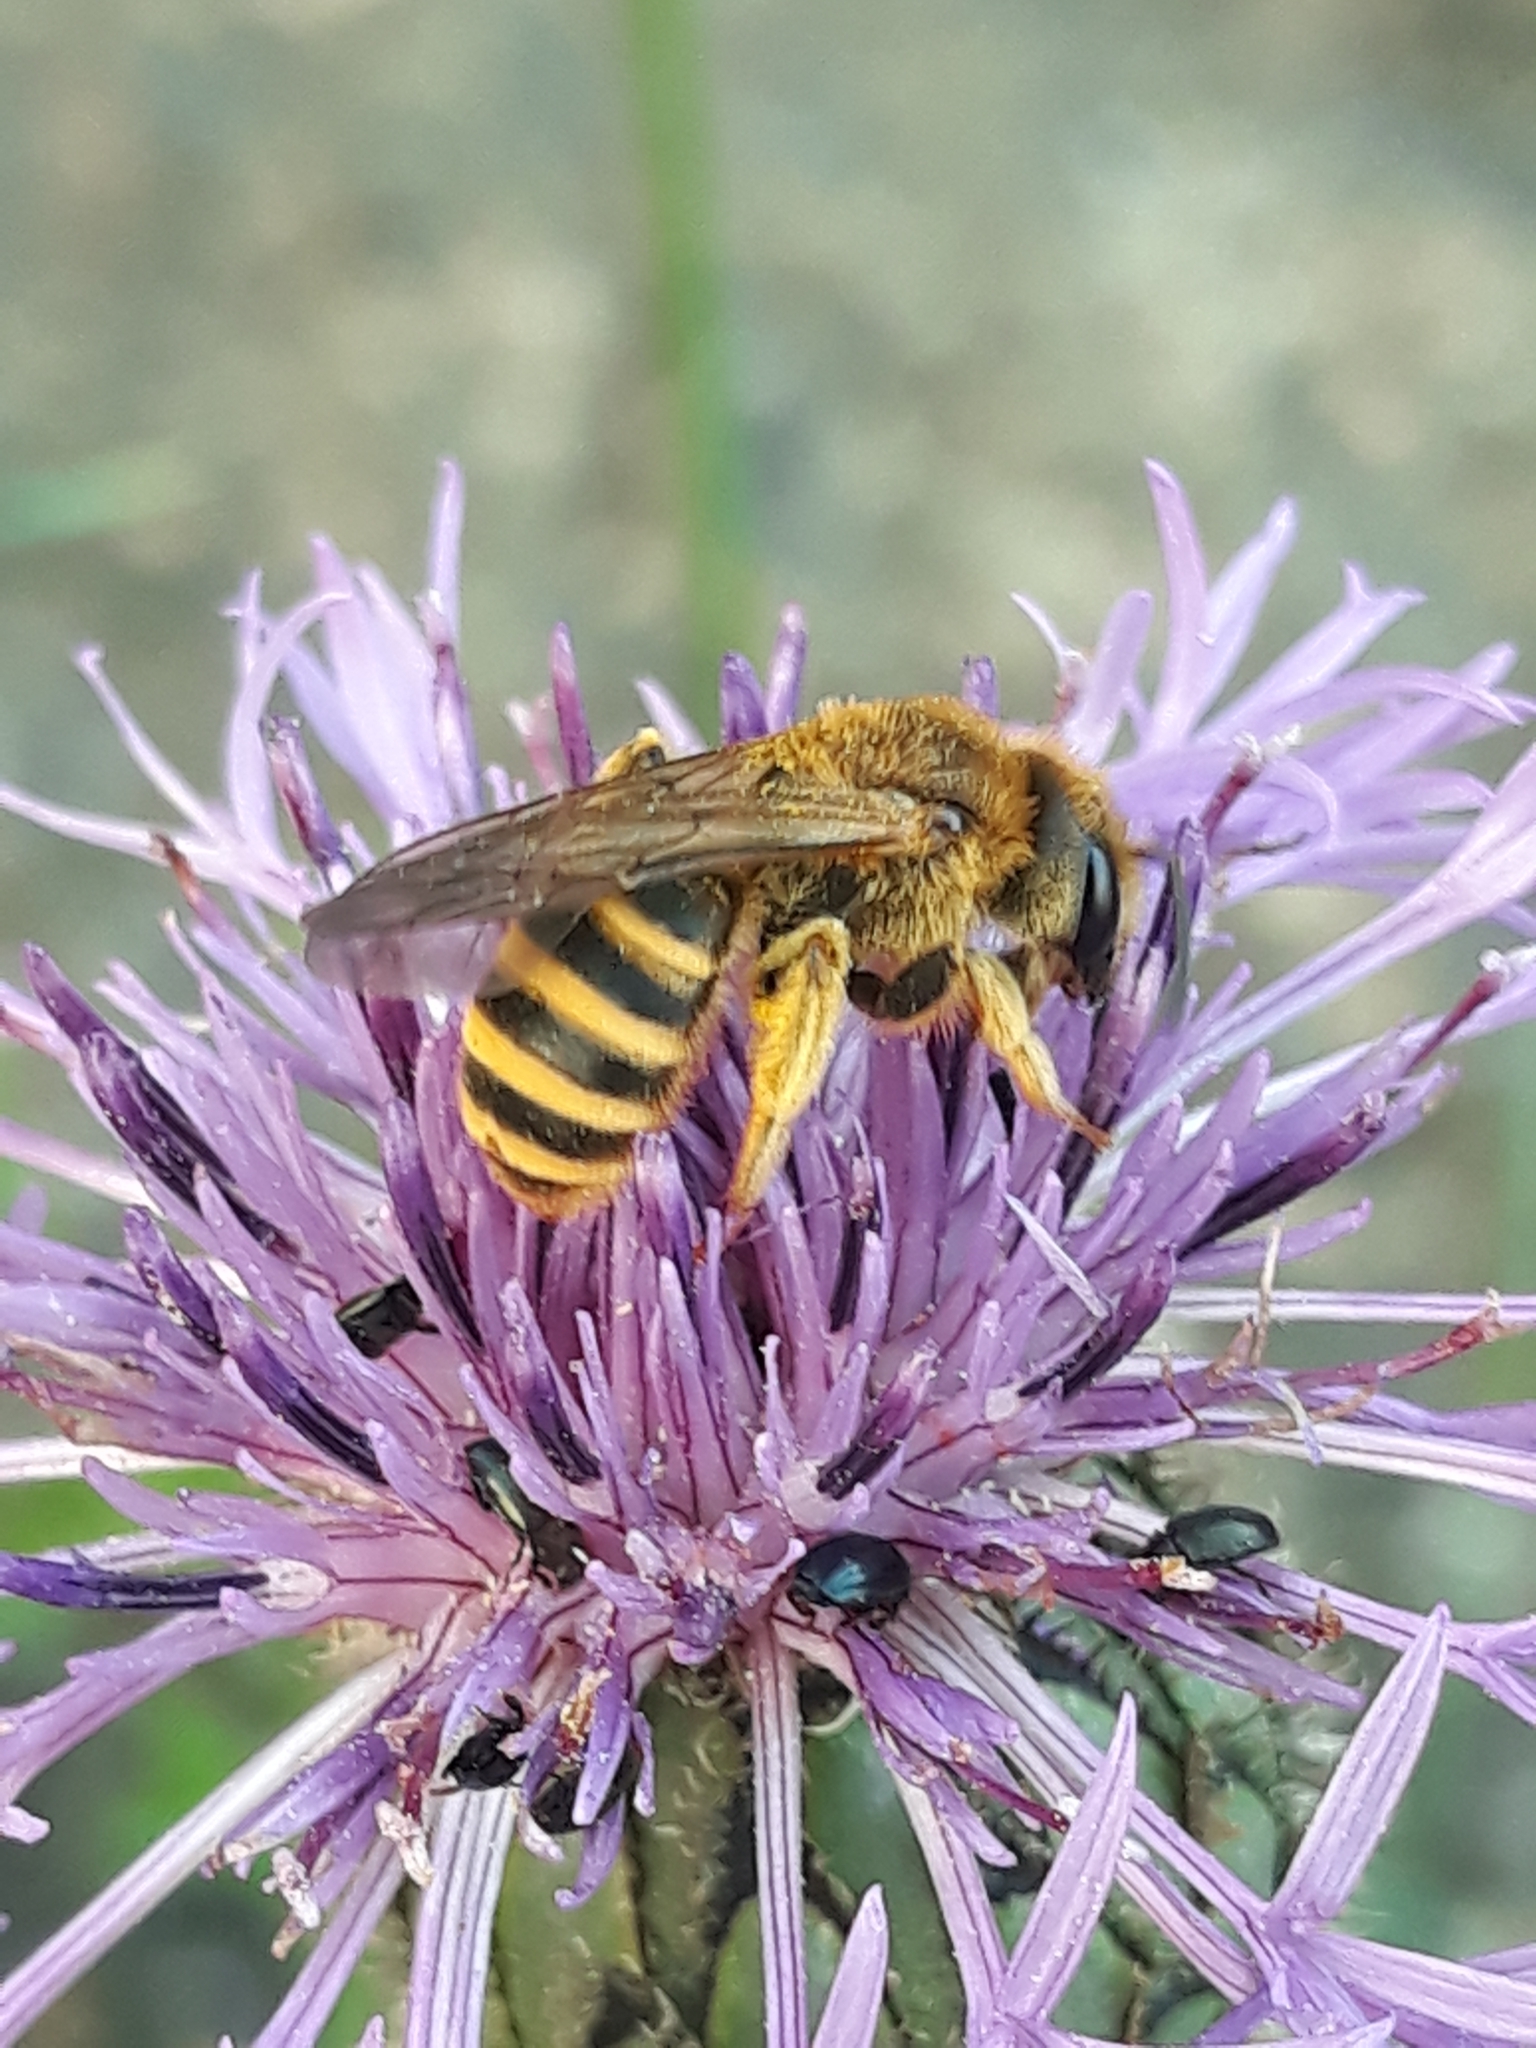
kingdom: Animalia
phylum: Arthropoda
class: Insecta
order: Hymenoptera
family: Halictidae
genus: Halictus
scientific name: Halictus scabiosae
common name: Great banded furrow bee
